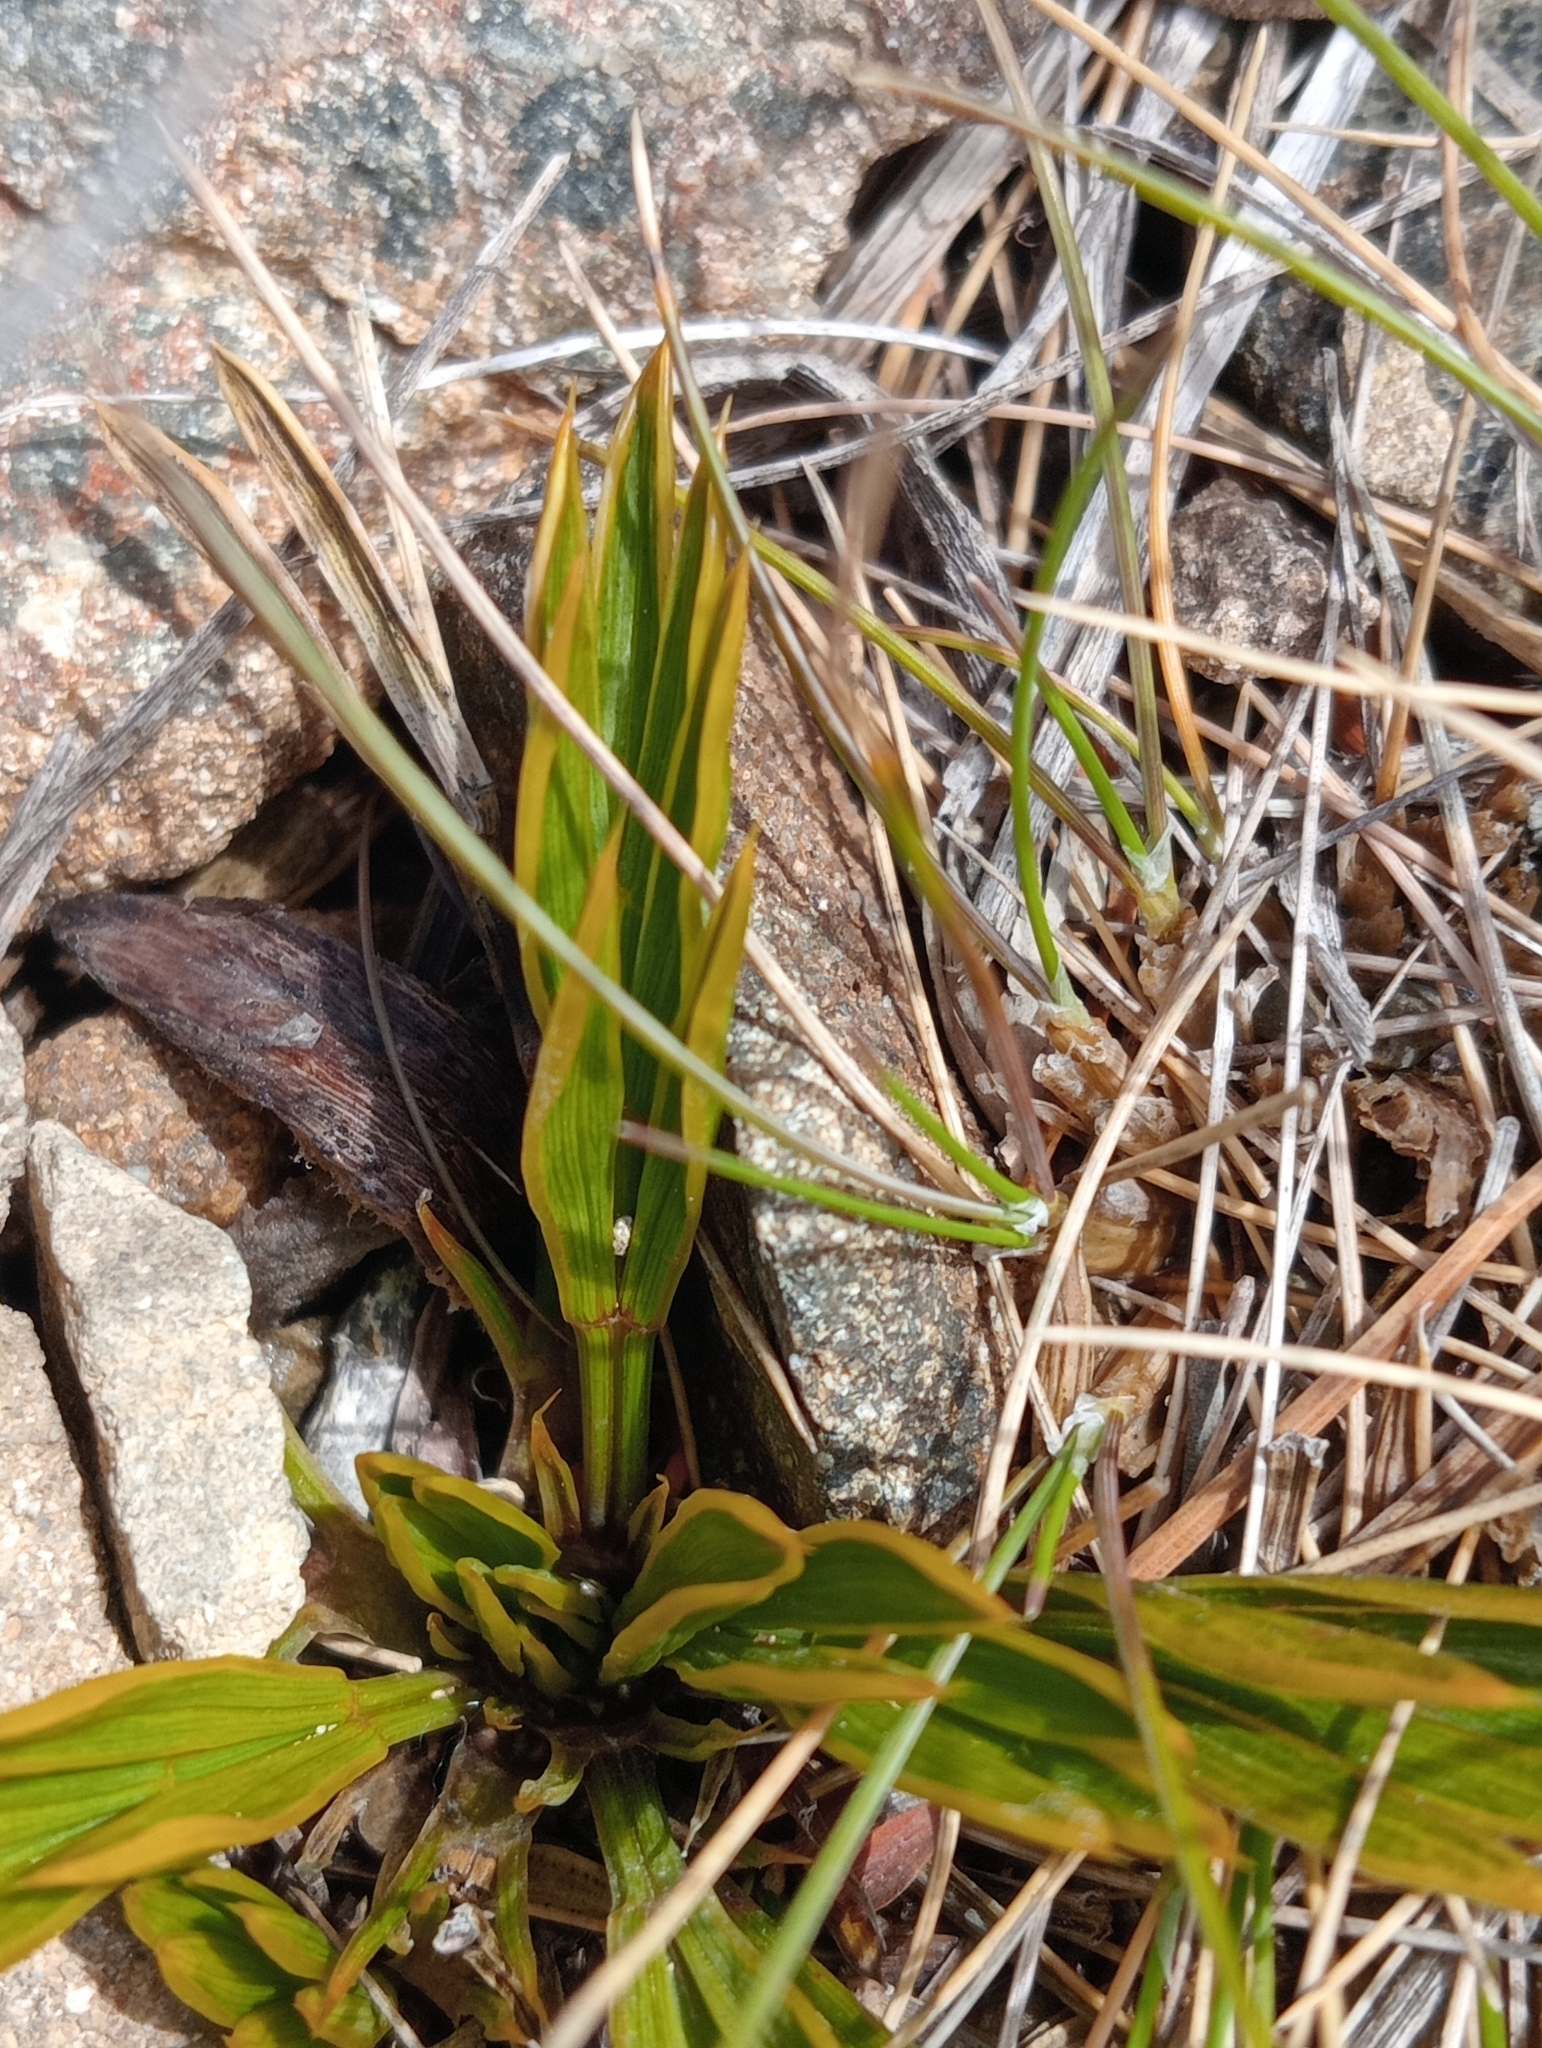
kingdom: Plantae
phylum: Tracheophyta
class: Magnoliopsida
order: Apiales
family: Apiaceae
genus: Aciphylla
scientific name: Aciphylla monroi
